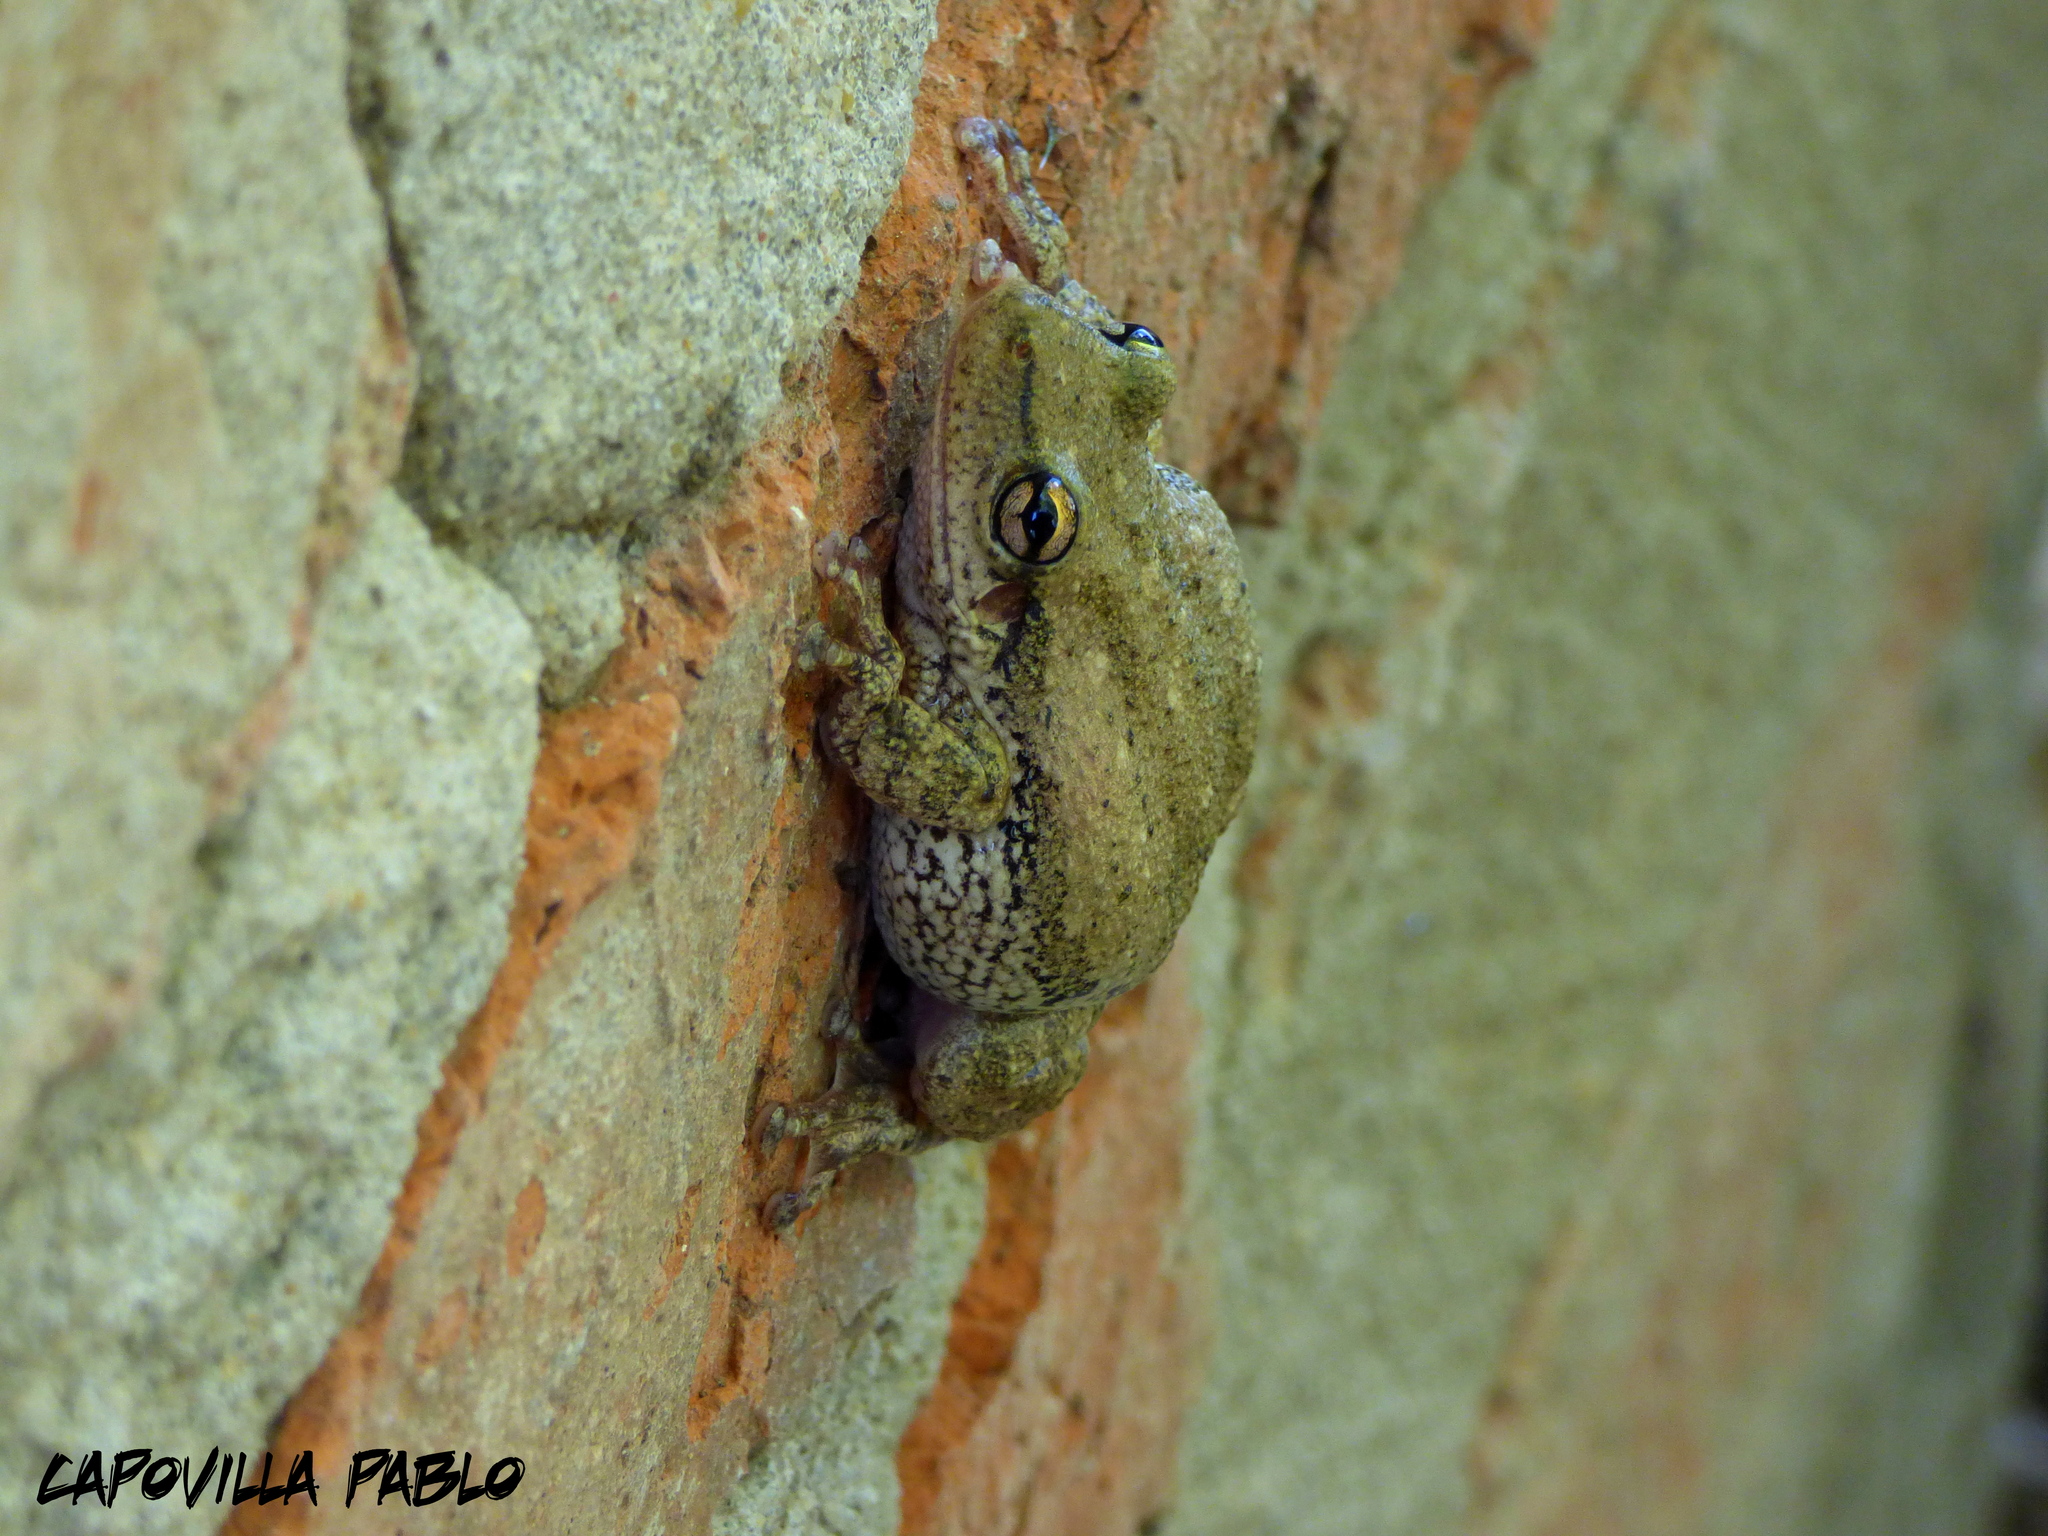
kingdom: Animalia
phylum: Chordata
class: Amphibia
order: Anura
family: Hylidae
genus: Scinax
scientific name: Scinax nasicus
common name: Lesser snouted treefrog
